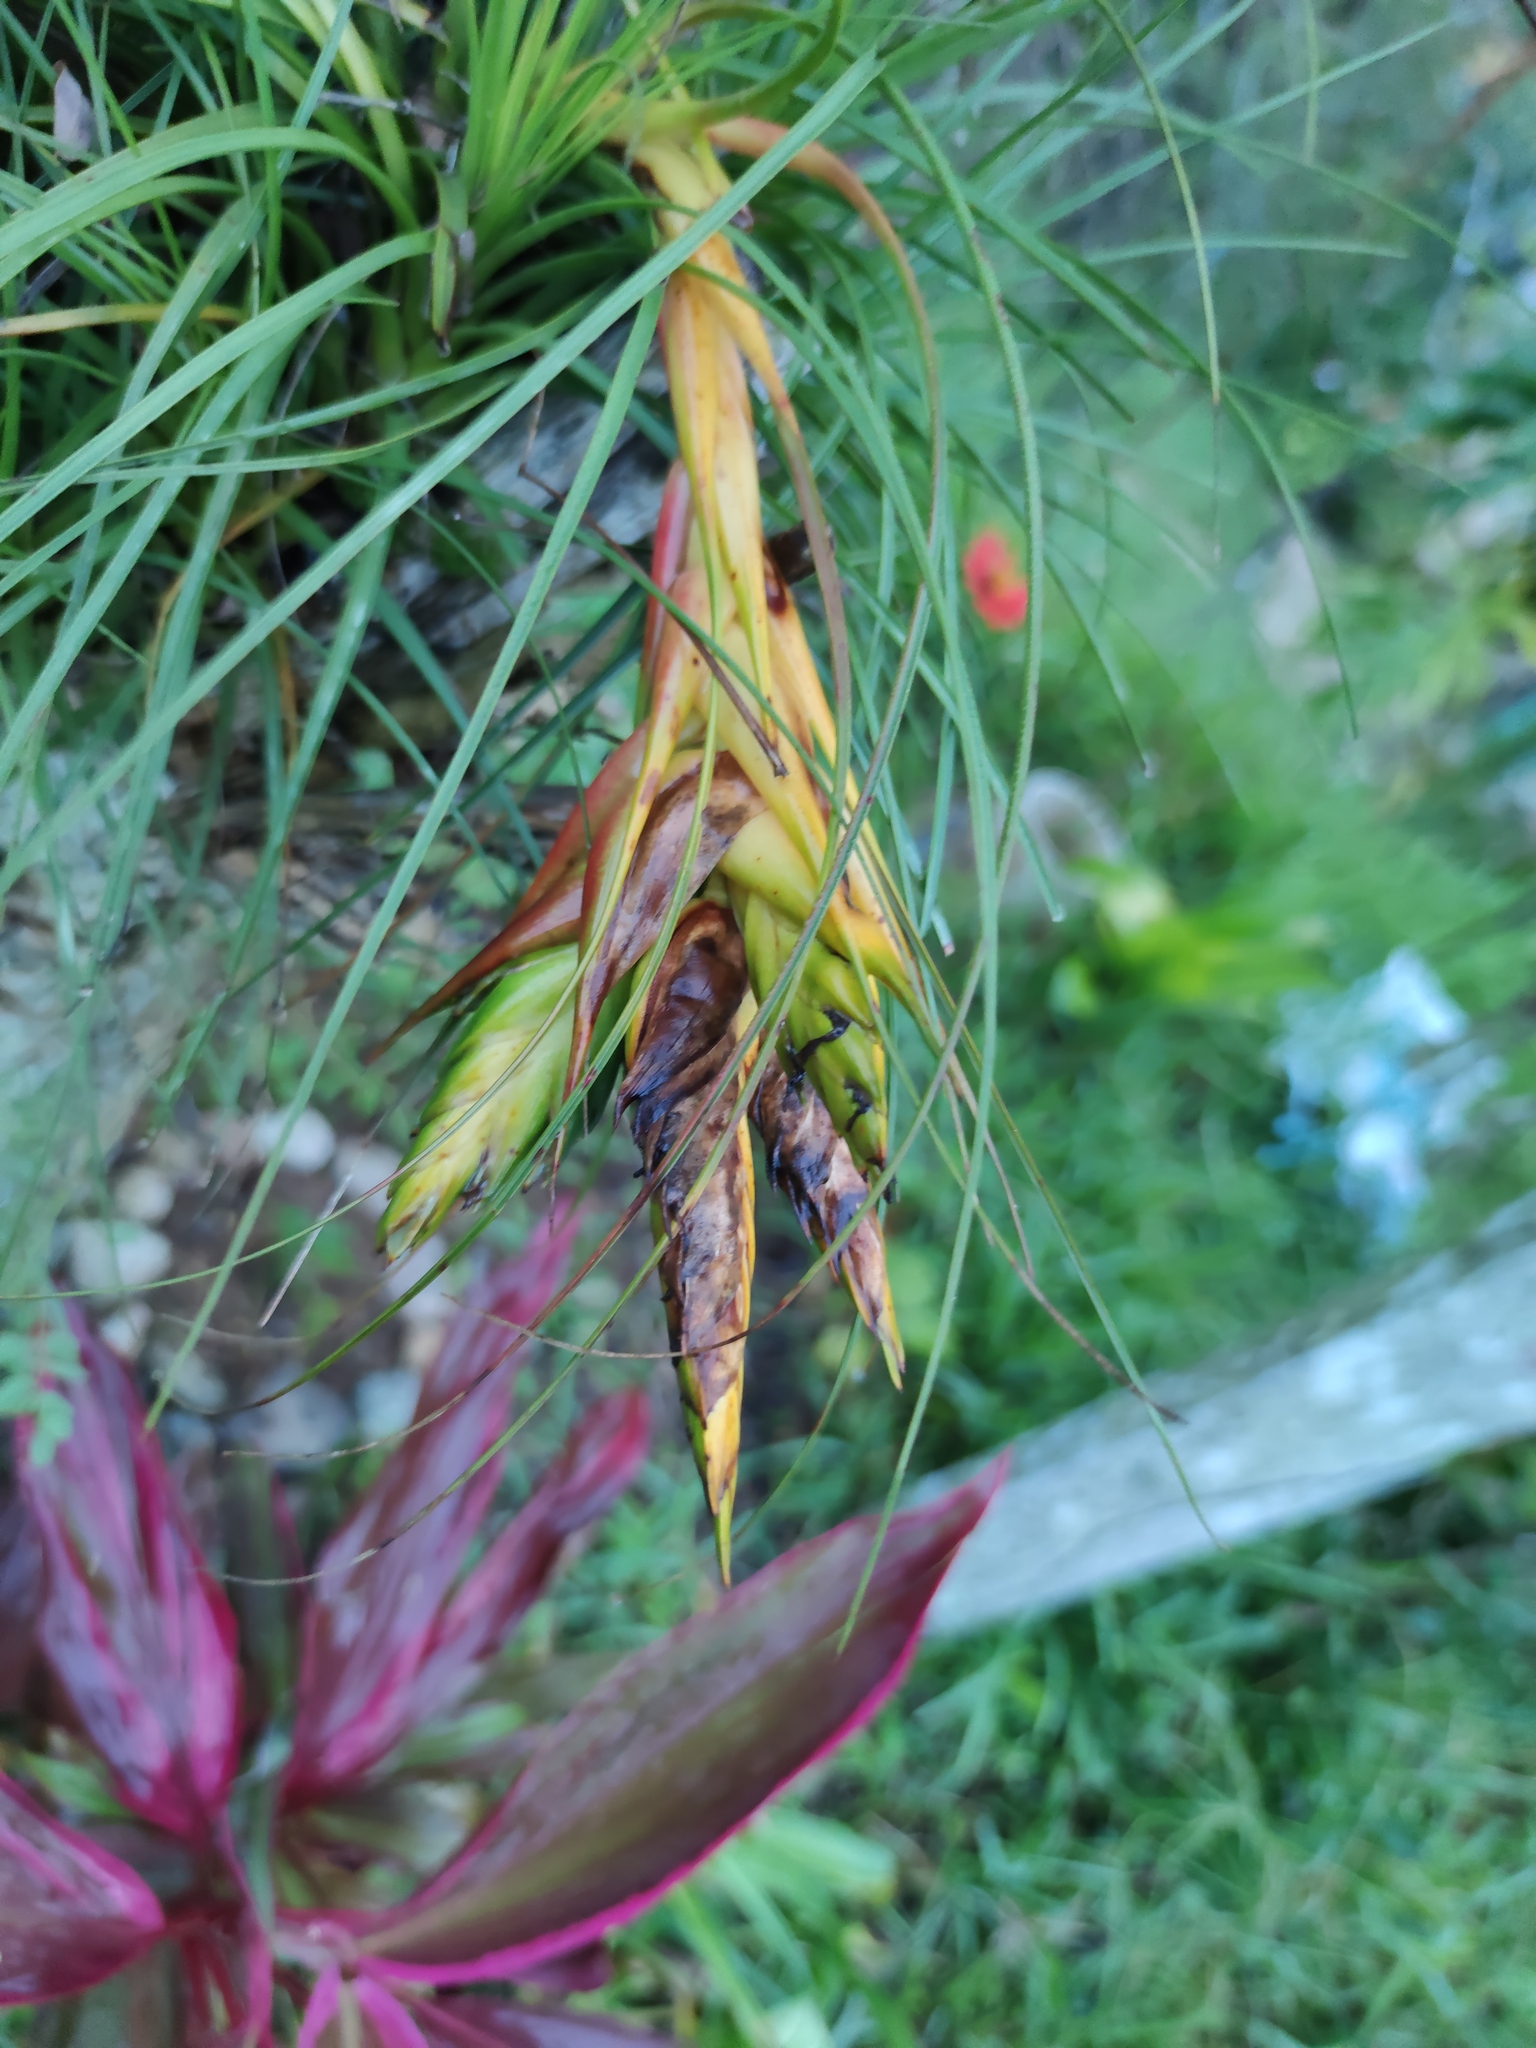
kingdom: Plantae
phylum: Tracheophyta
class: Liliopsida
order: Poales
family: Bromeliaceae
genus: Tillandsia
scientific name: Tillandsia punctulata
